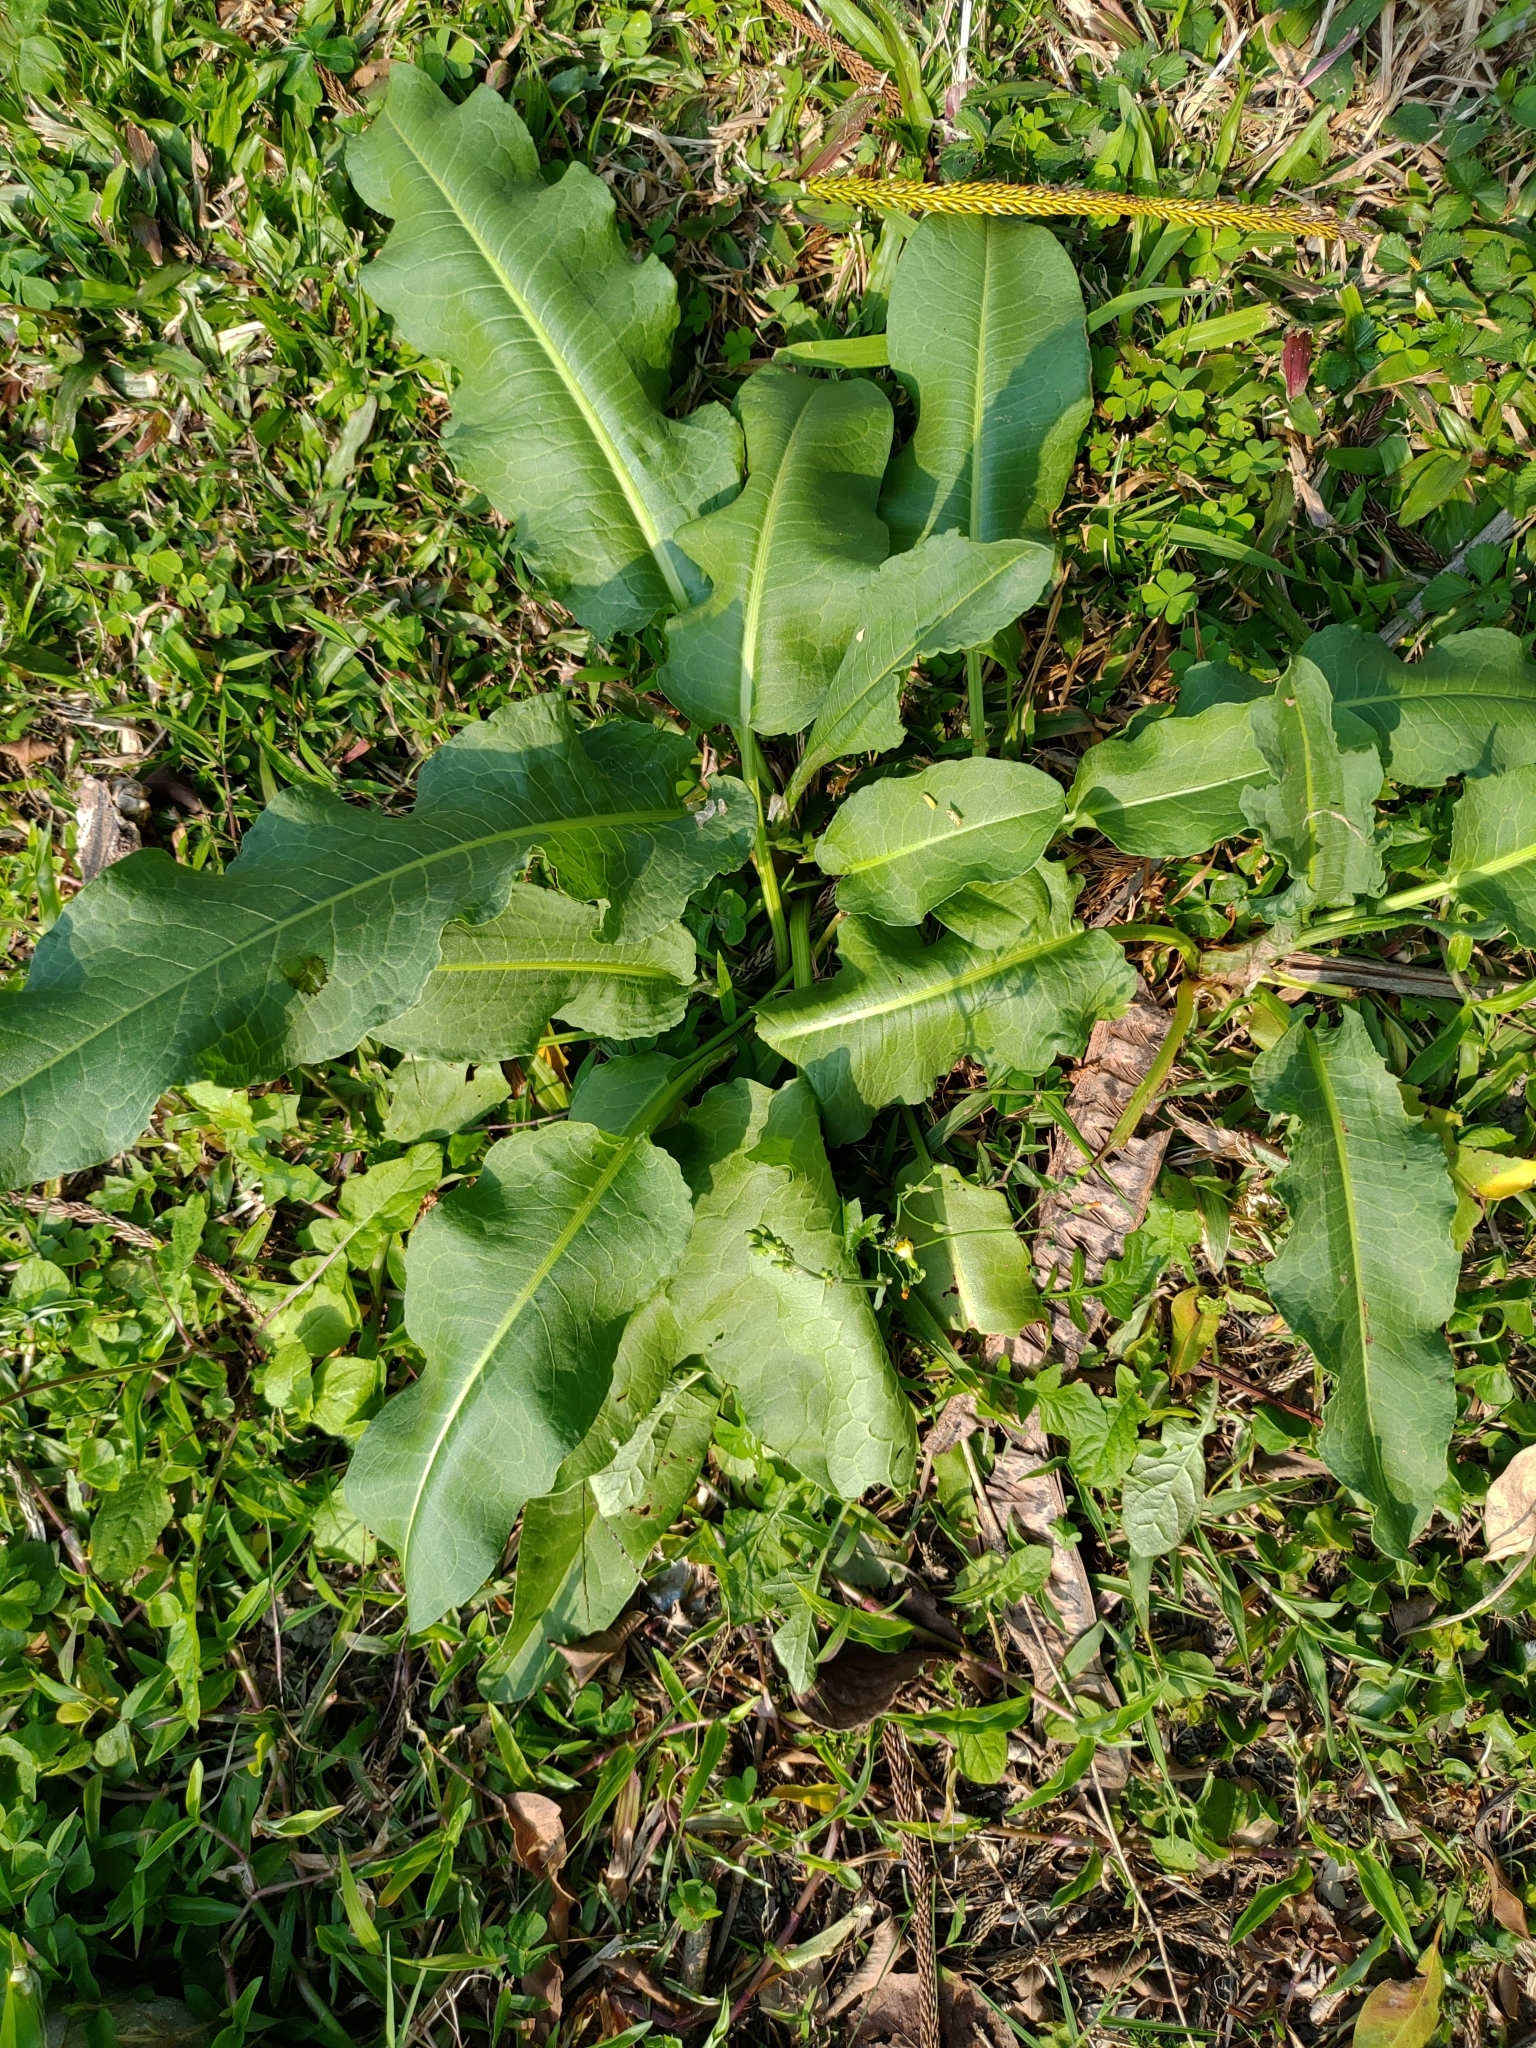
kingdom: Plantae
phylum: Tracheophyta
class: Magnoliopsida
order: Caryophyllales
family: Polygonaceae
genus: Rumex
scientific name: Rumex japonicus
